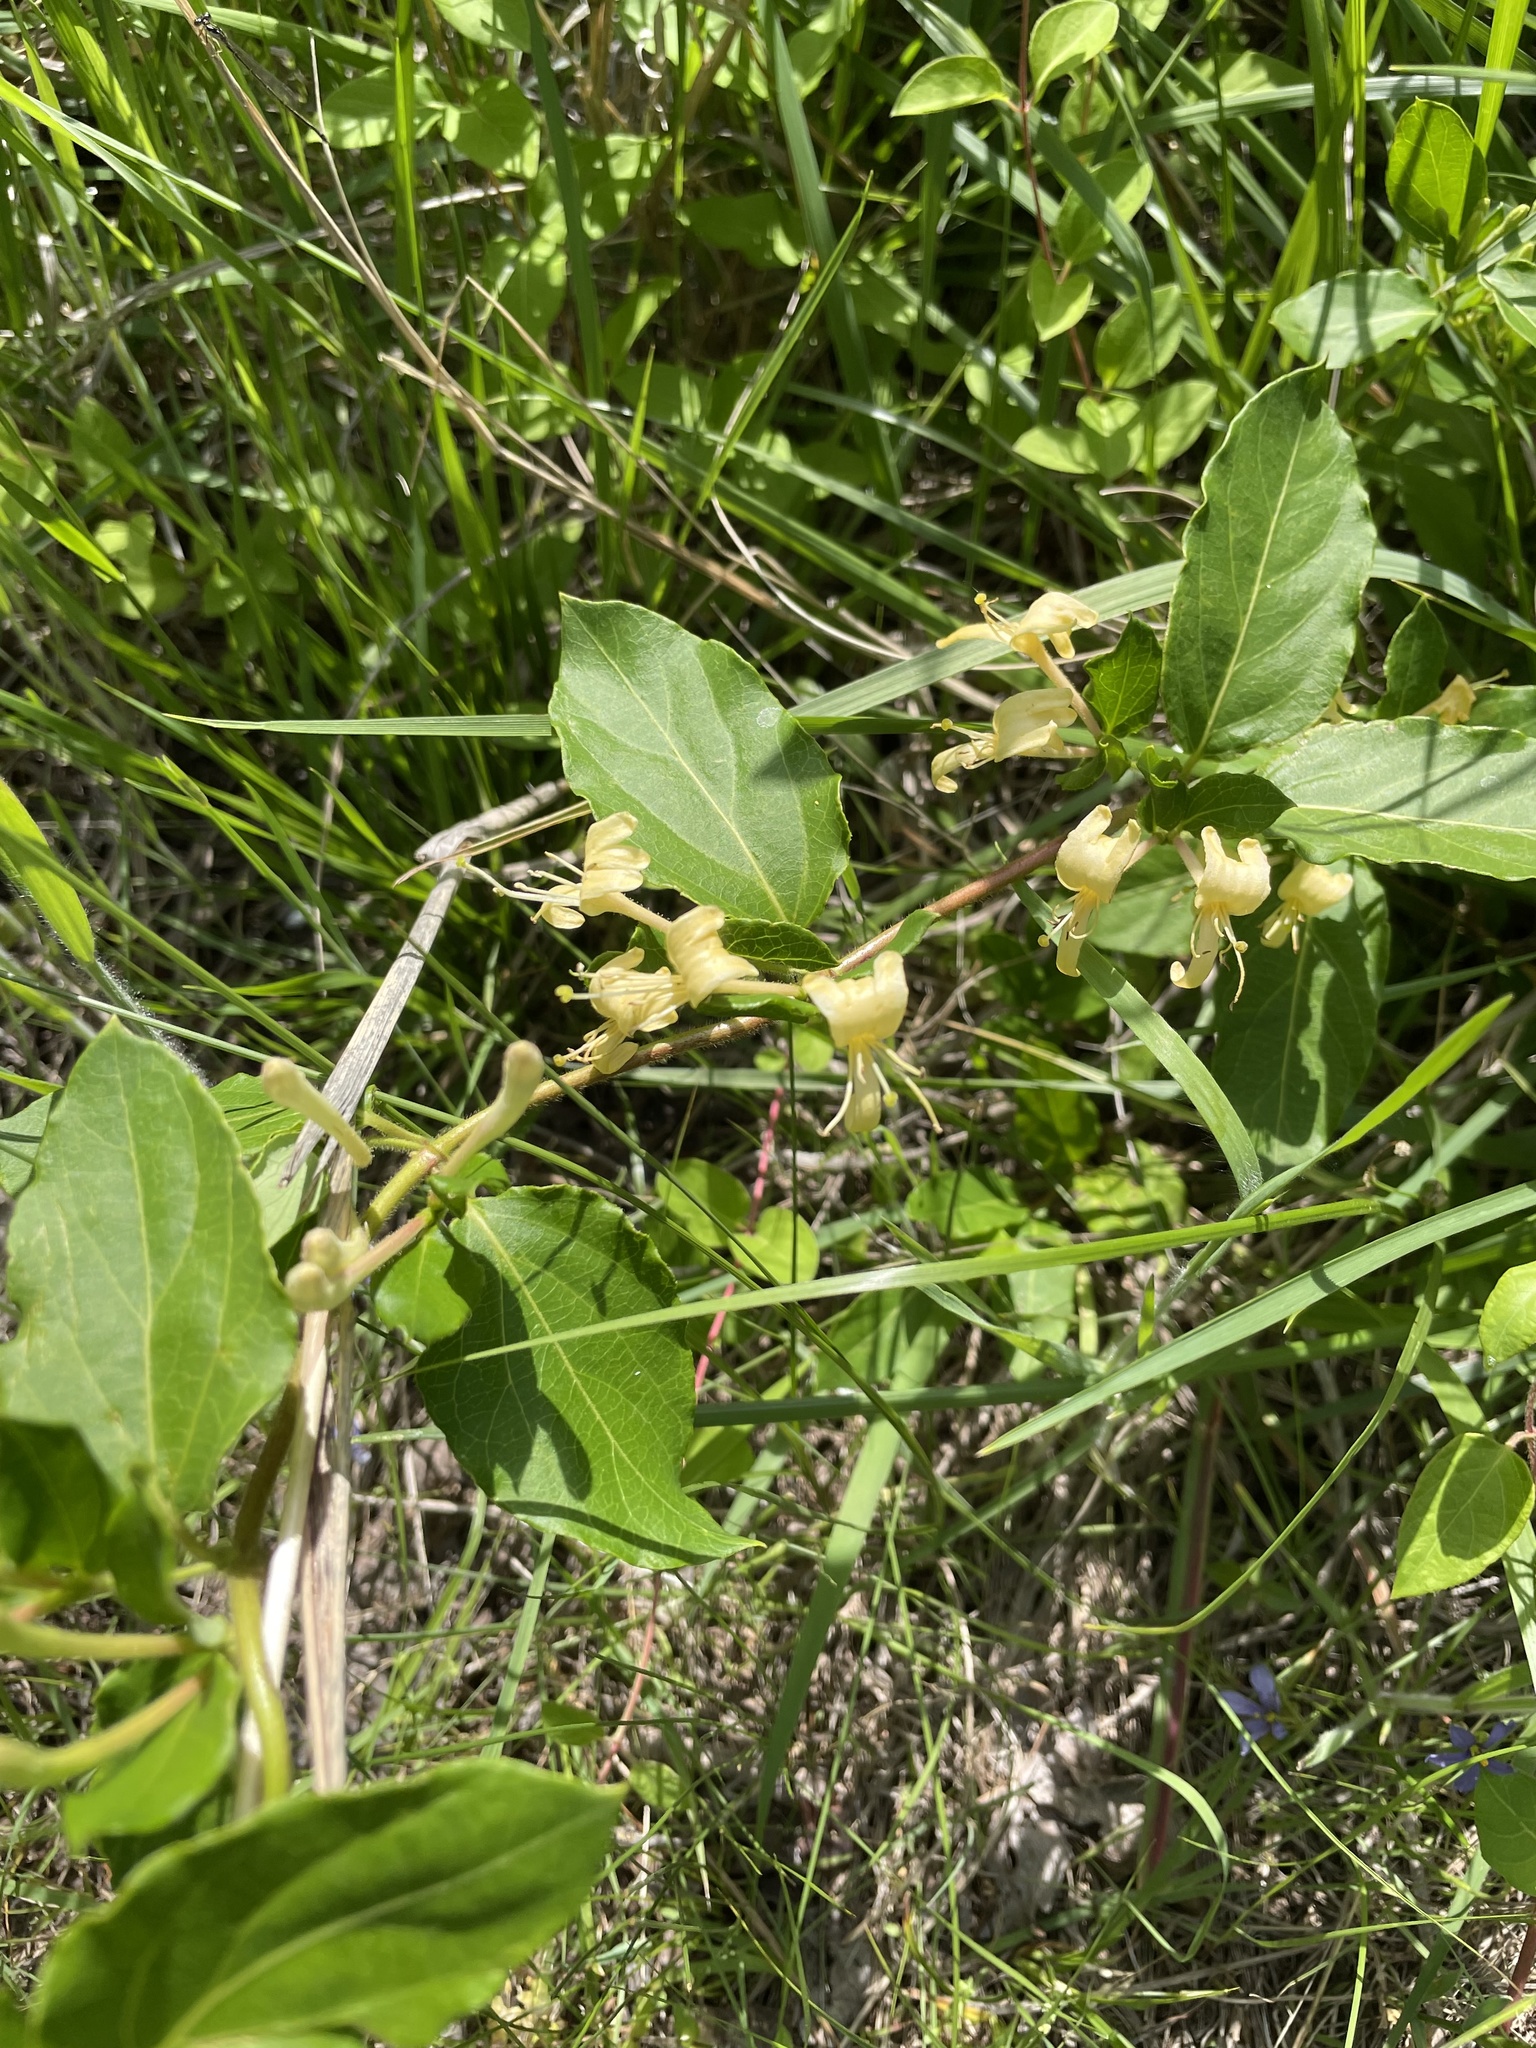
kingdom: Plantae
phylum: Tracheophyta
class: Magnoliopsida
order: Dipsacales
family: Caprifoliaceae
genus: Lonicera
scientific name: Lonicera japonica
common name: Japanese honeysuckle
